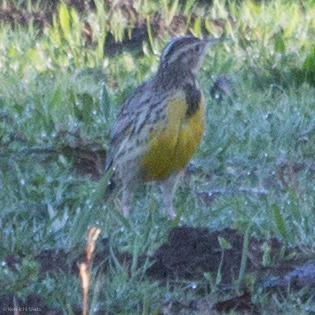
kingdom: Animalia
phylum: Chordata
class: Aves
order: Passeriformes
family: Icteridae
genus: Sturnella
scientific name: Sturnella neglecta
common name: Western meadowlark
